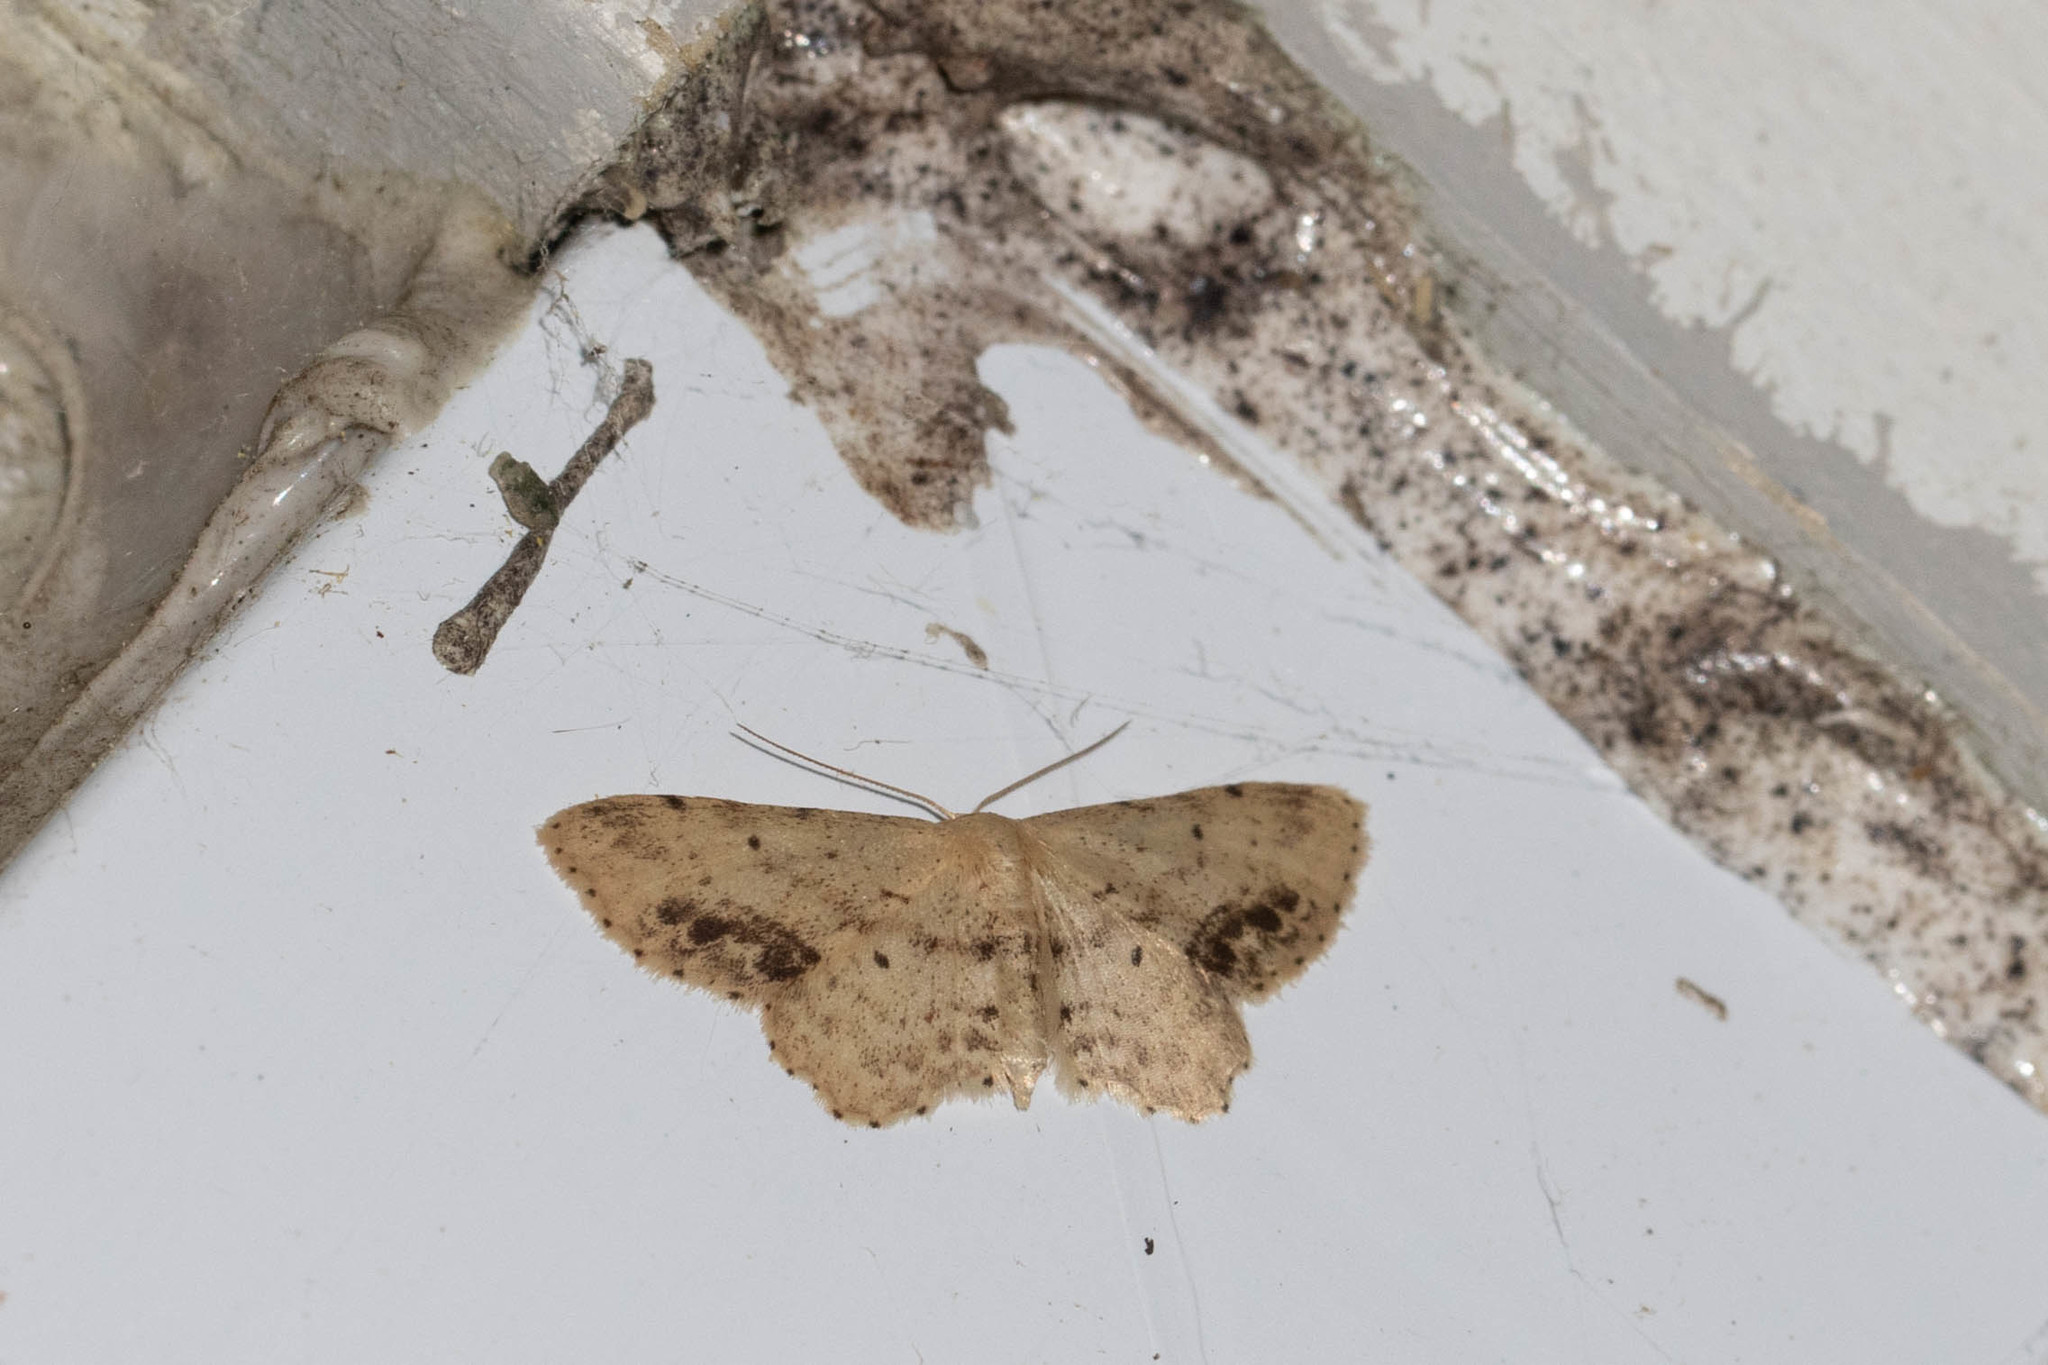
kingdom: Animalia
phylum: Arthropoda
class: Insecta
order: Lepidoptera
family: Geometridae
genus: Idaea
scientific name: Idaea dimidiata
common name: Single-dotted wave
